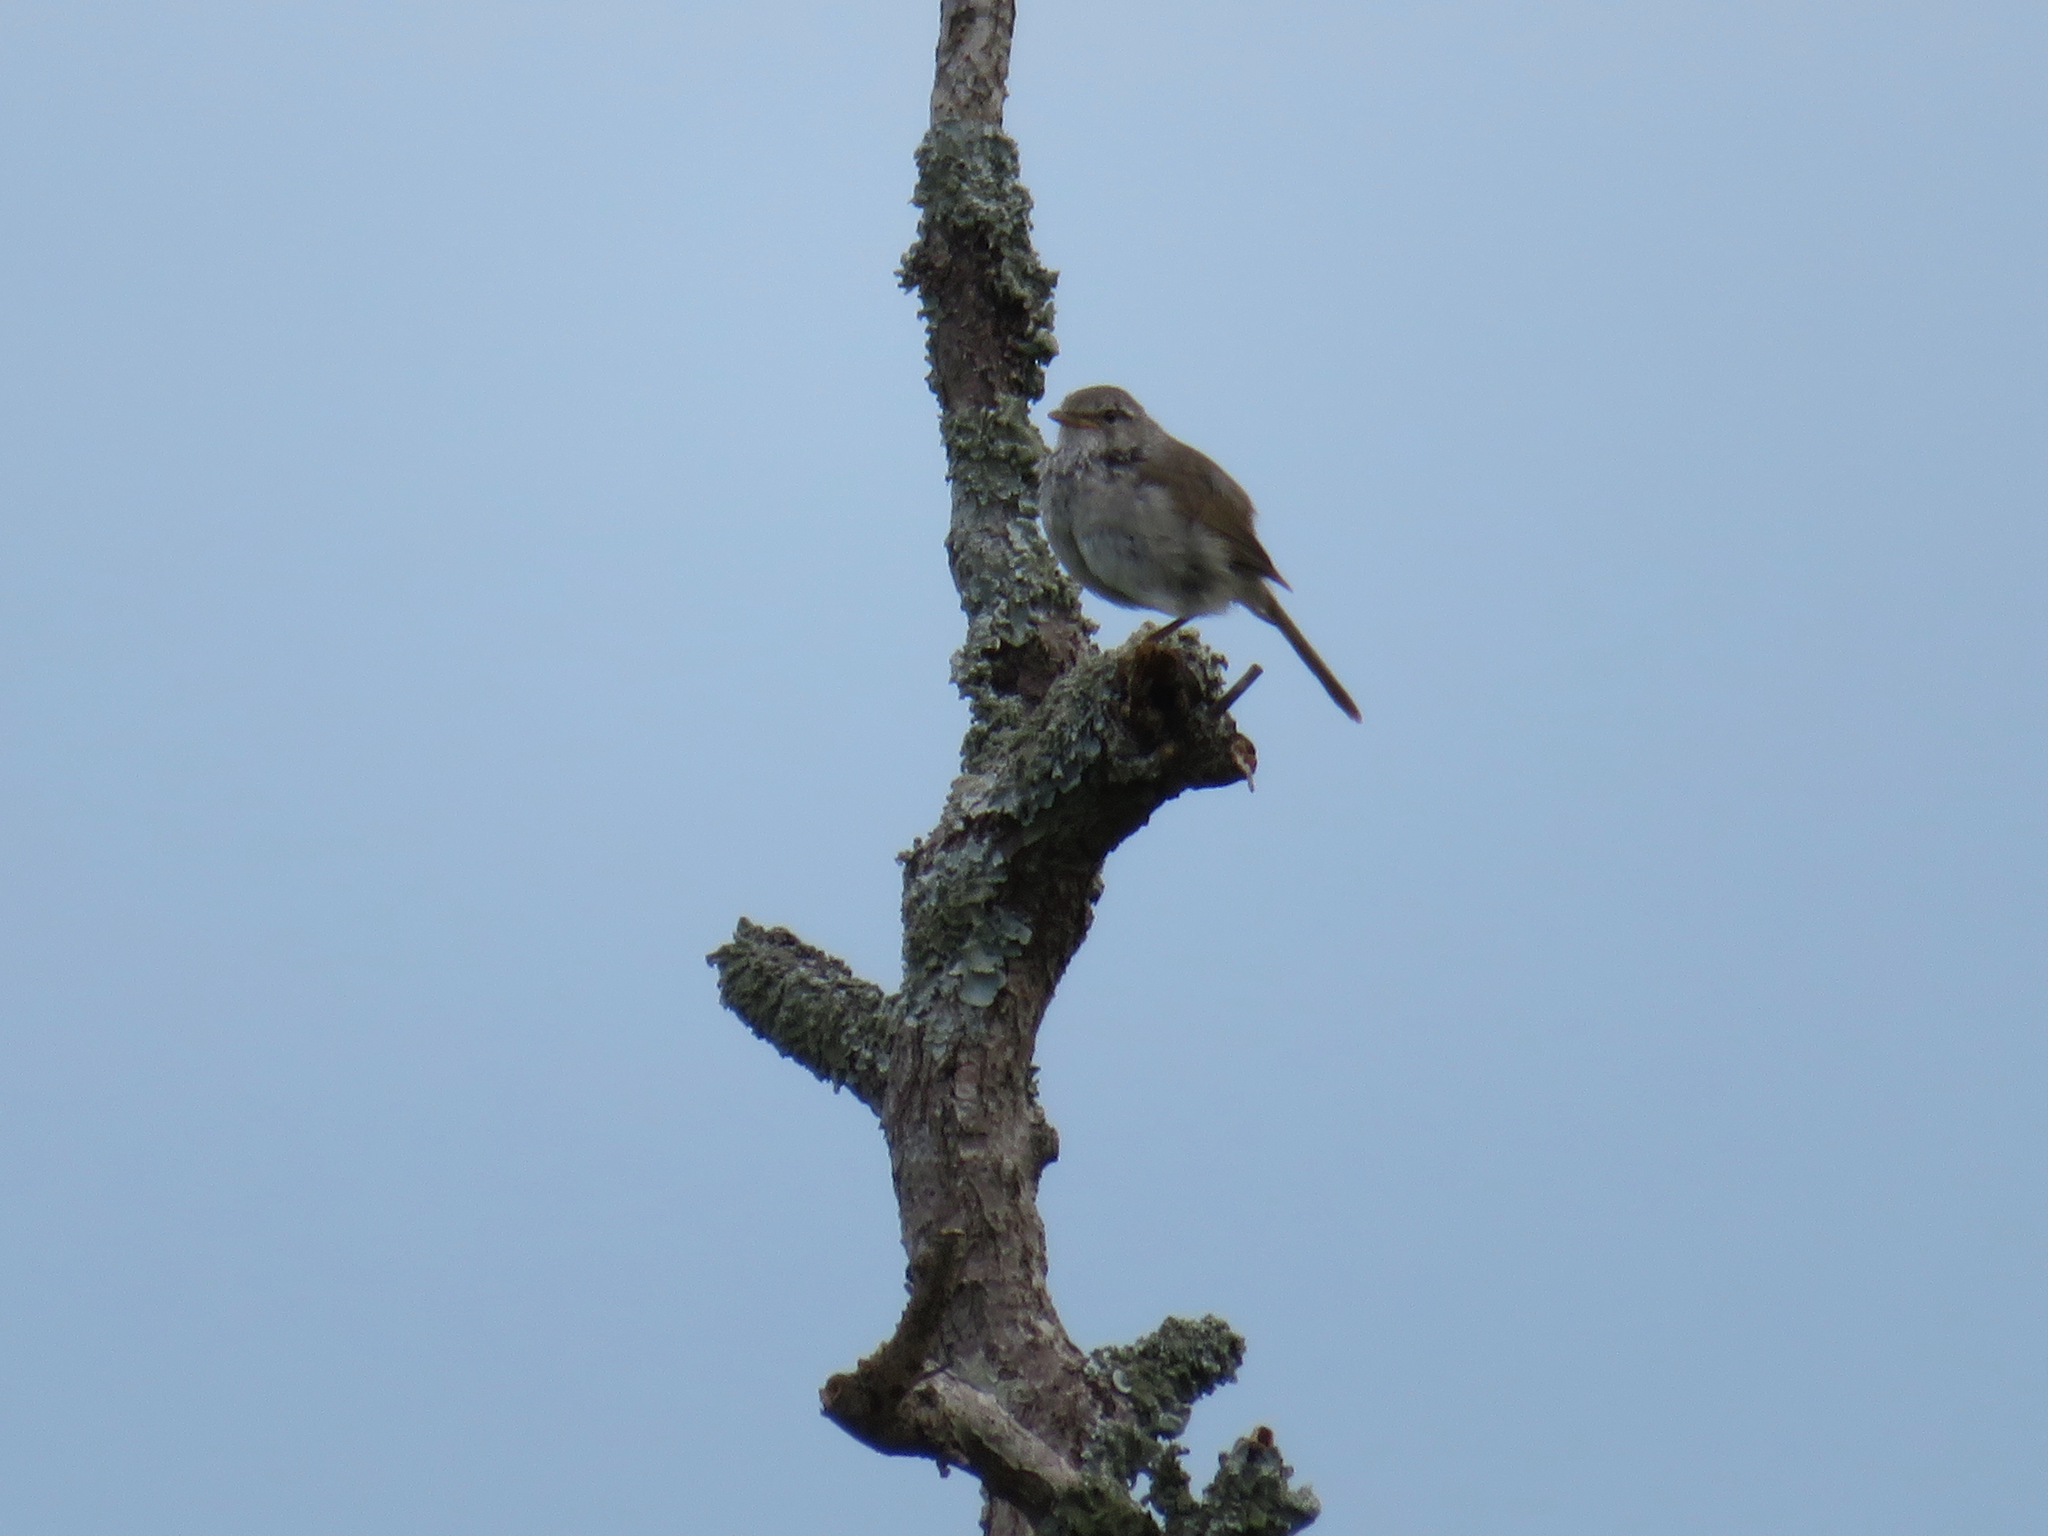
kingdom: Animalia
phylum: Chordata
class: Aves
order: Passeriformes
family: Cettiidae
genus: Horornis
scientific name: Horornis diphone
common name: Japanese bush warbler
